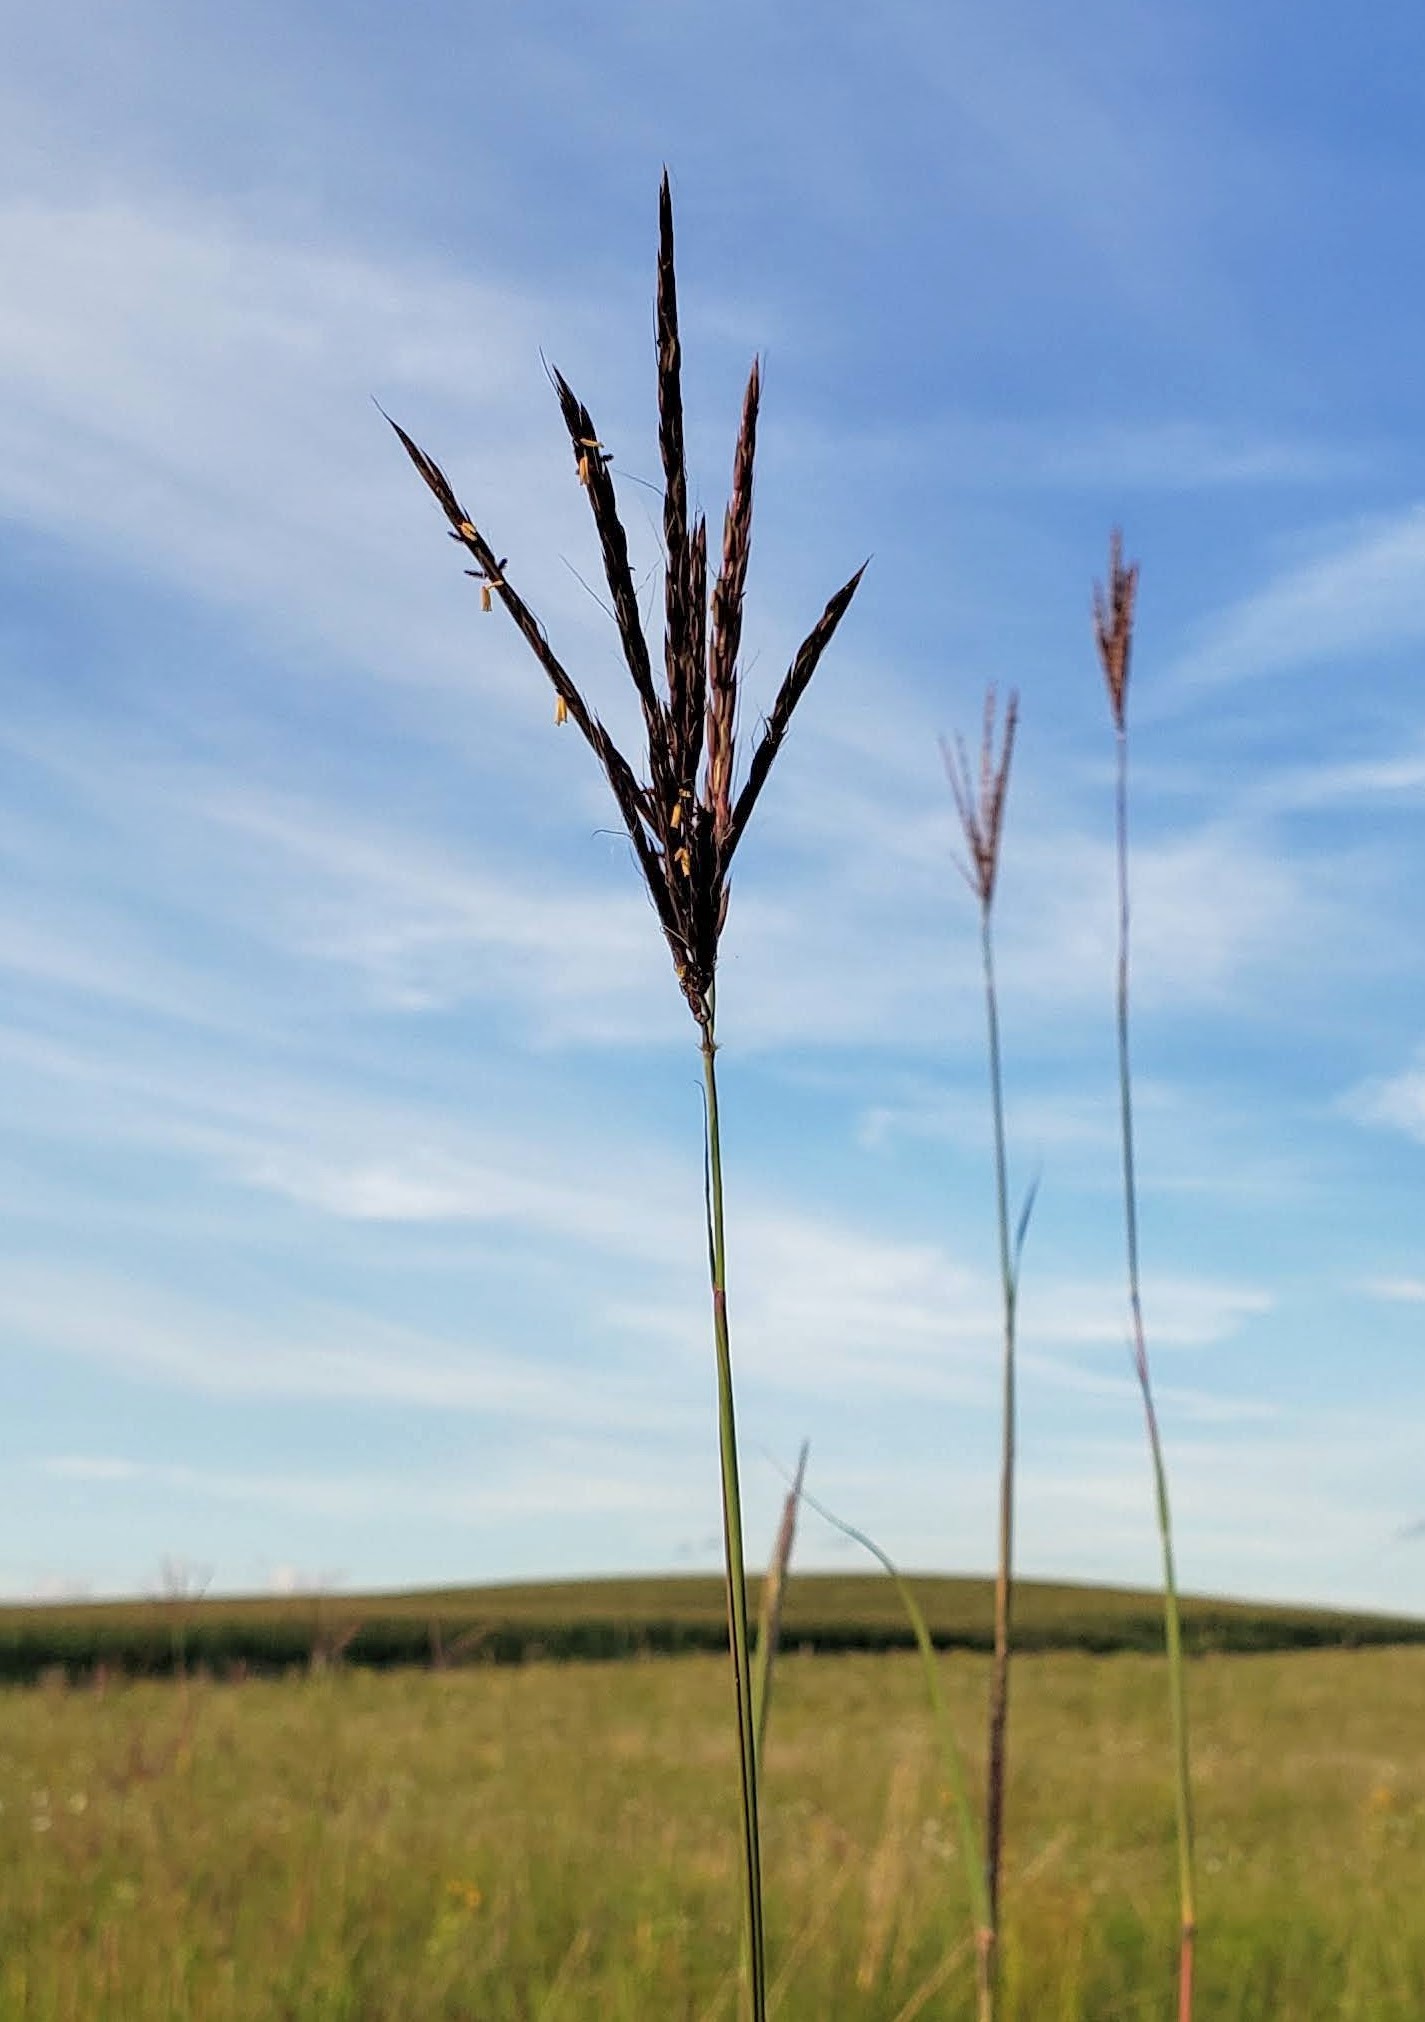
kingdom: Plantae
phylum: Tracheophyta
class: Liliopsida
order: Poales
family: Poaceae
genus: Andropogon
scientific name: Andropogon gerardi
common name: Big bluestem
